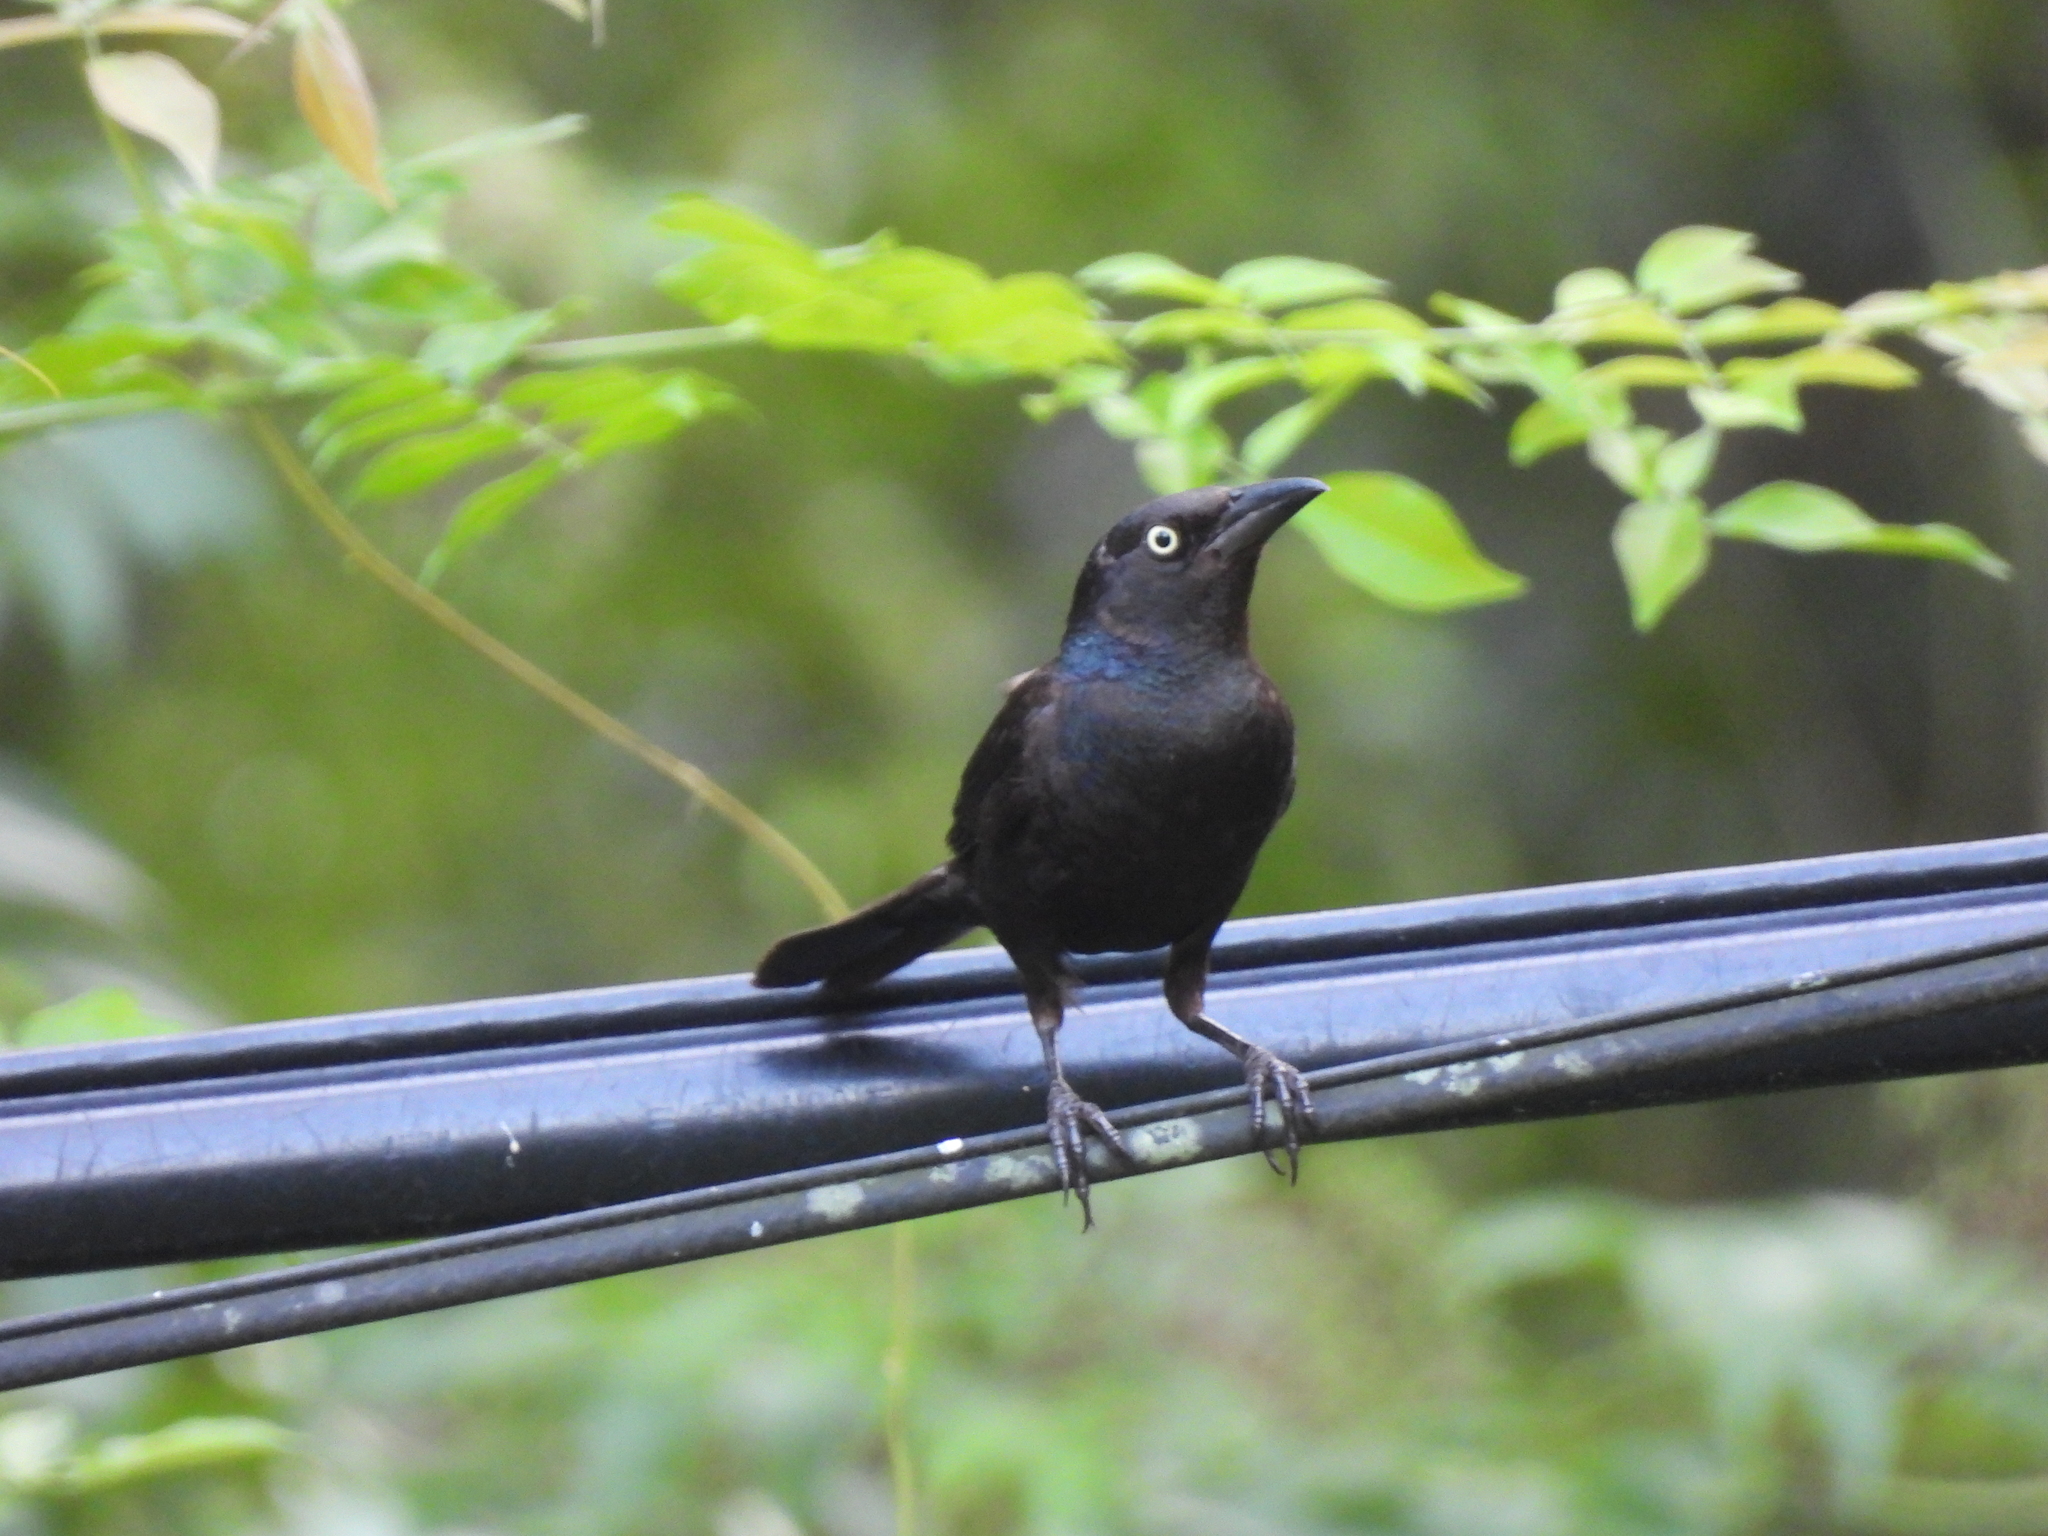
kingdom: Animalia
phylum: Chordata
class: Aves
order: Passeriformes
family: Icteridae
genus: Quiscalus
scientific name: Quiscalus quiscula
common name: Common grackle
